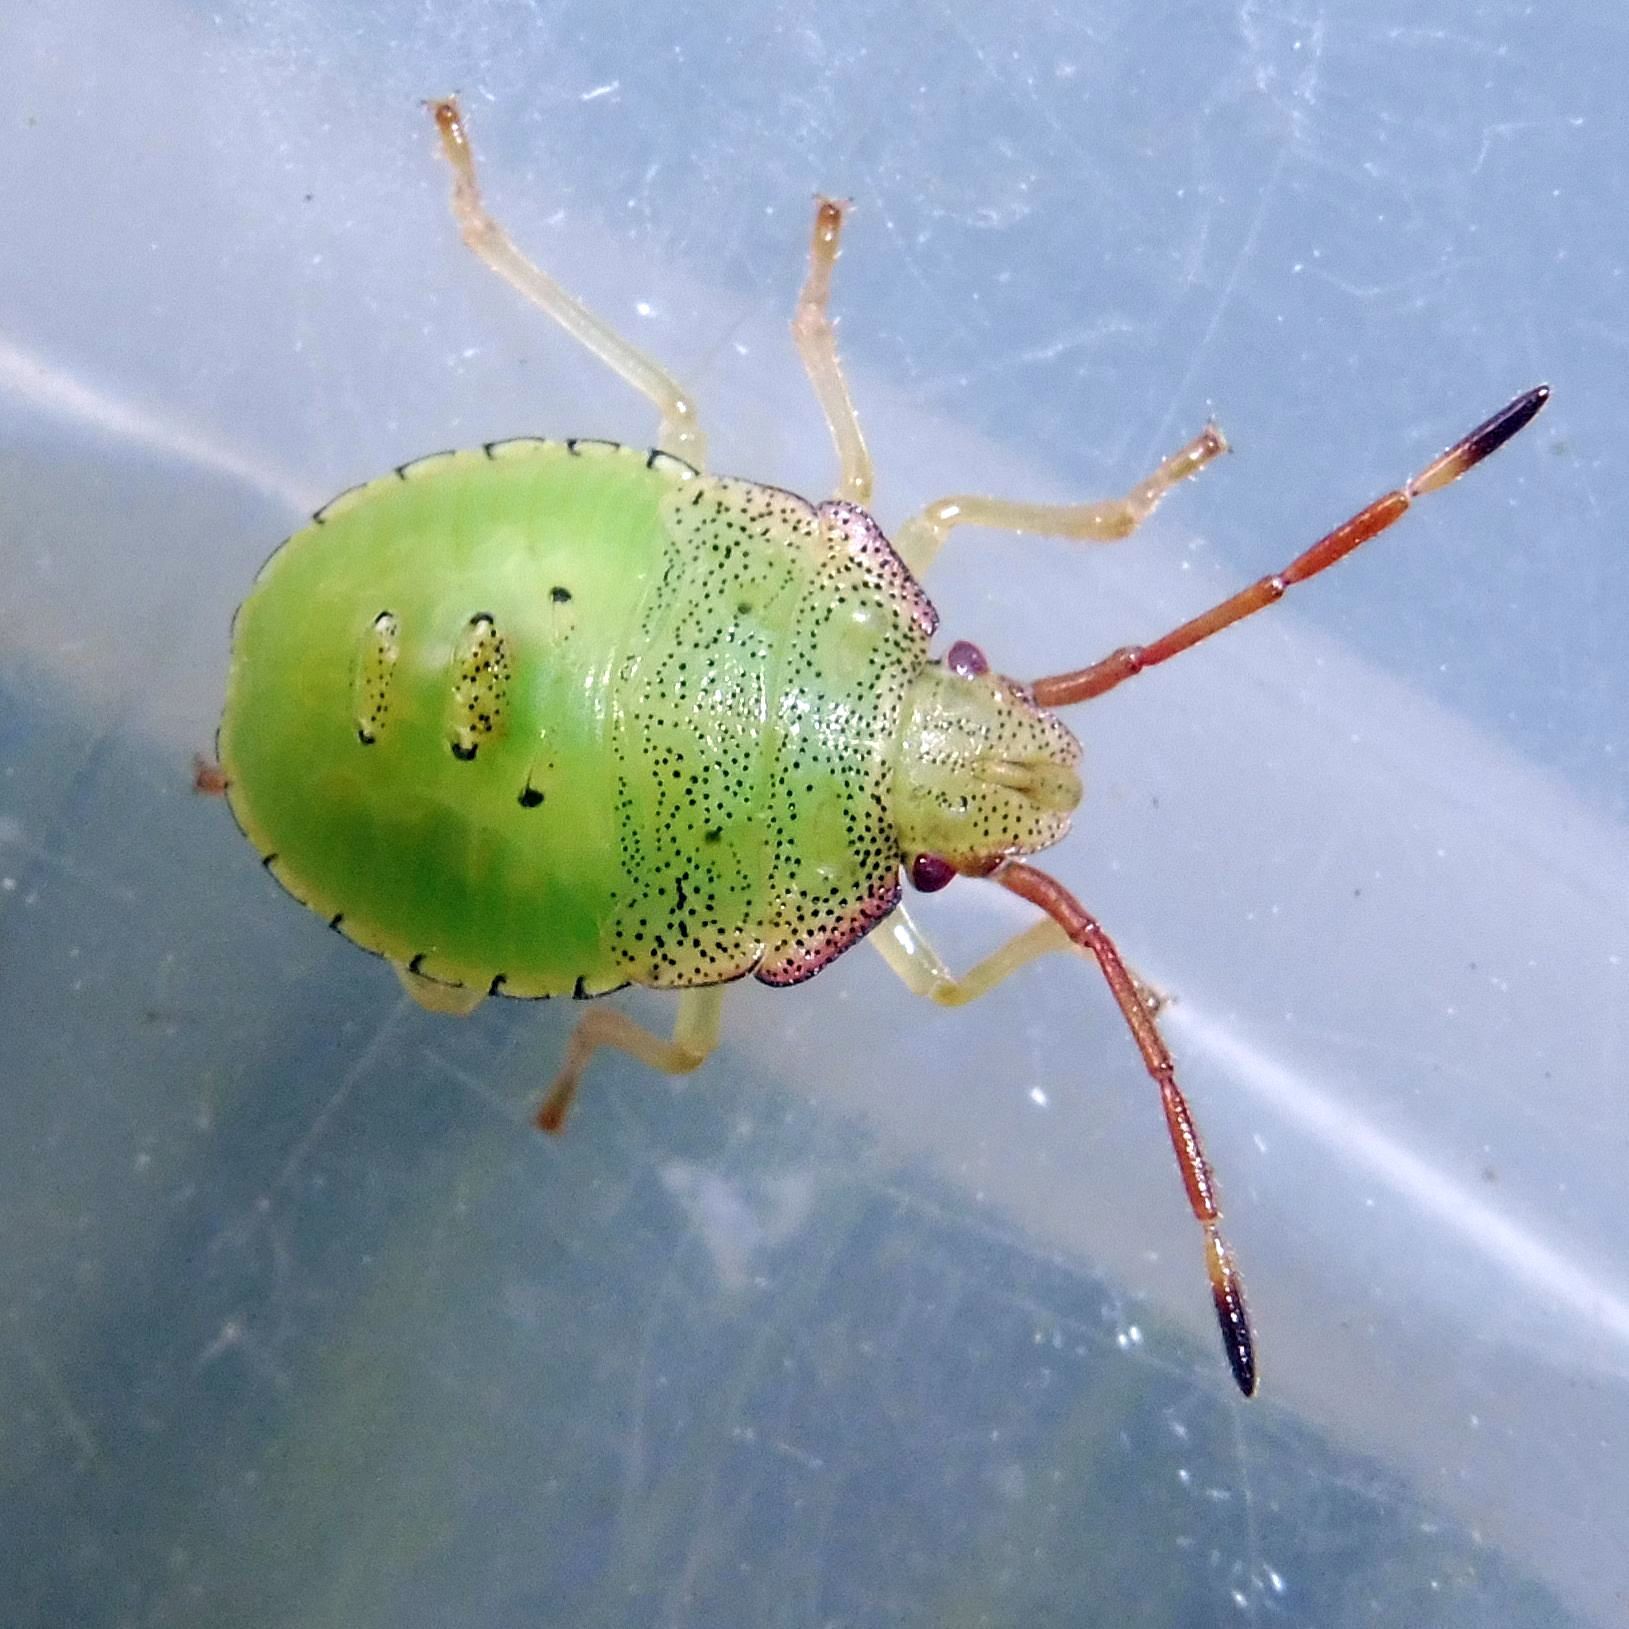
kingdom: Animalia
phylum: Arthropoda
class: Insecta
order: Hemiptera
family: Acanthosomatidae
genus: Acanthosoma
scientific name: Acanthosoma haemorrhoidale
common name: Hawthorn shieldbug
